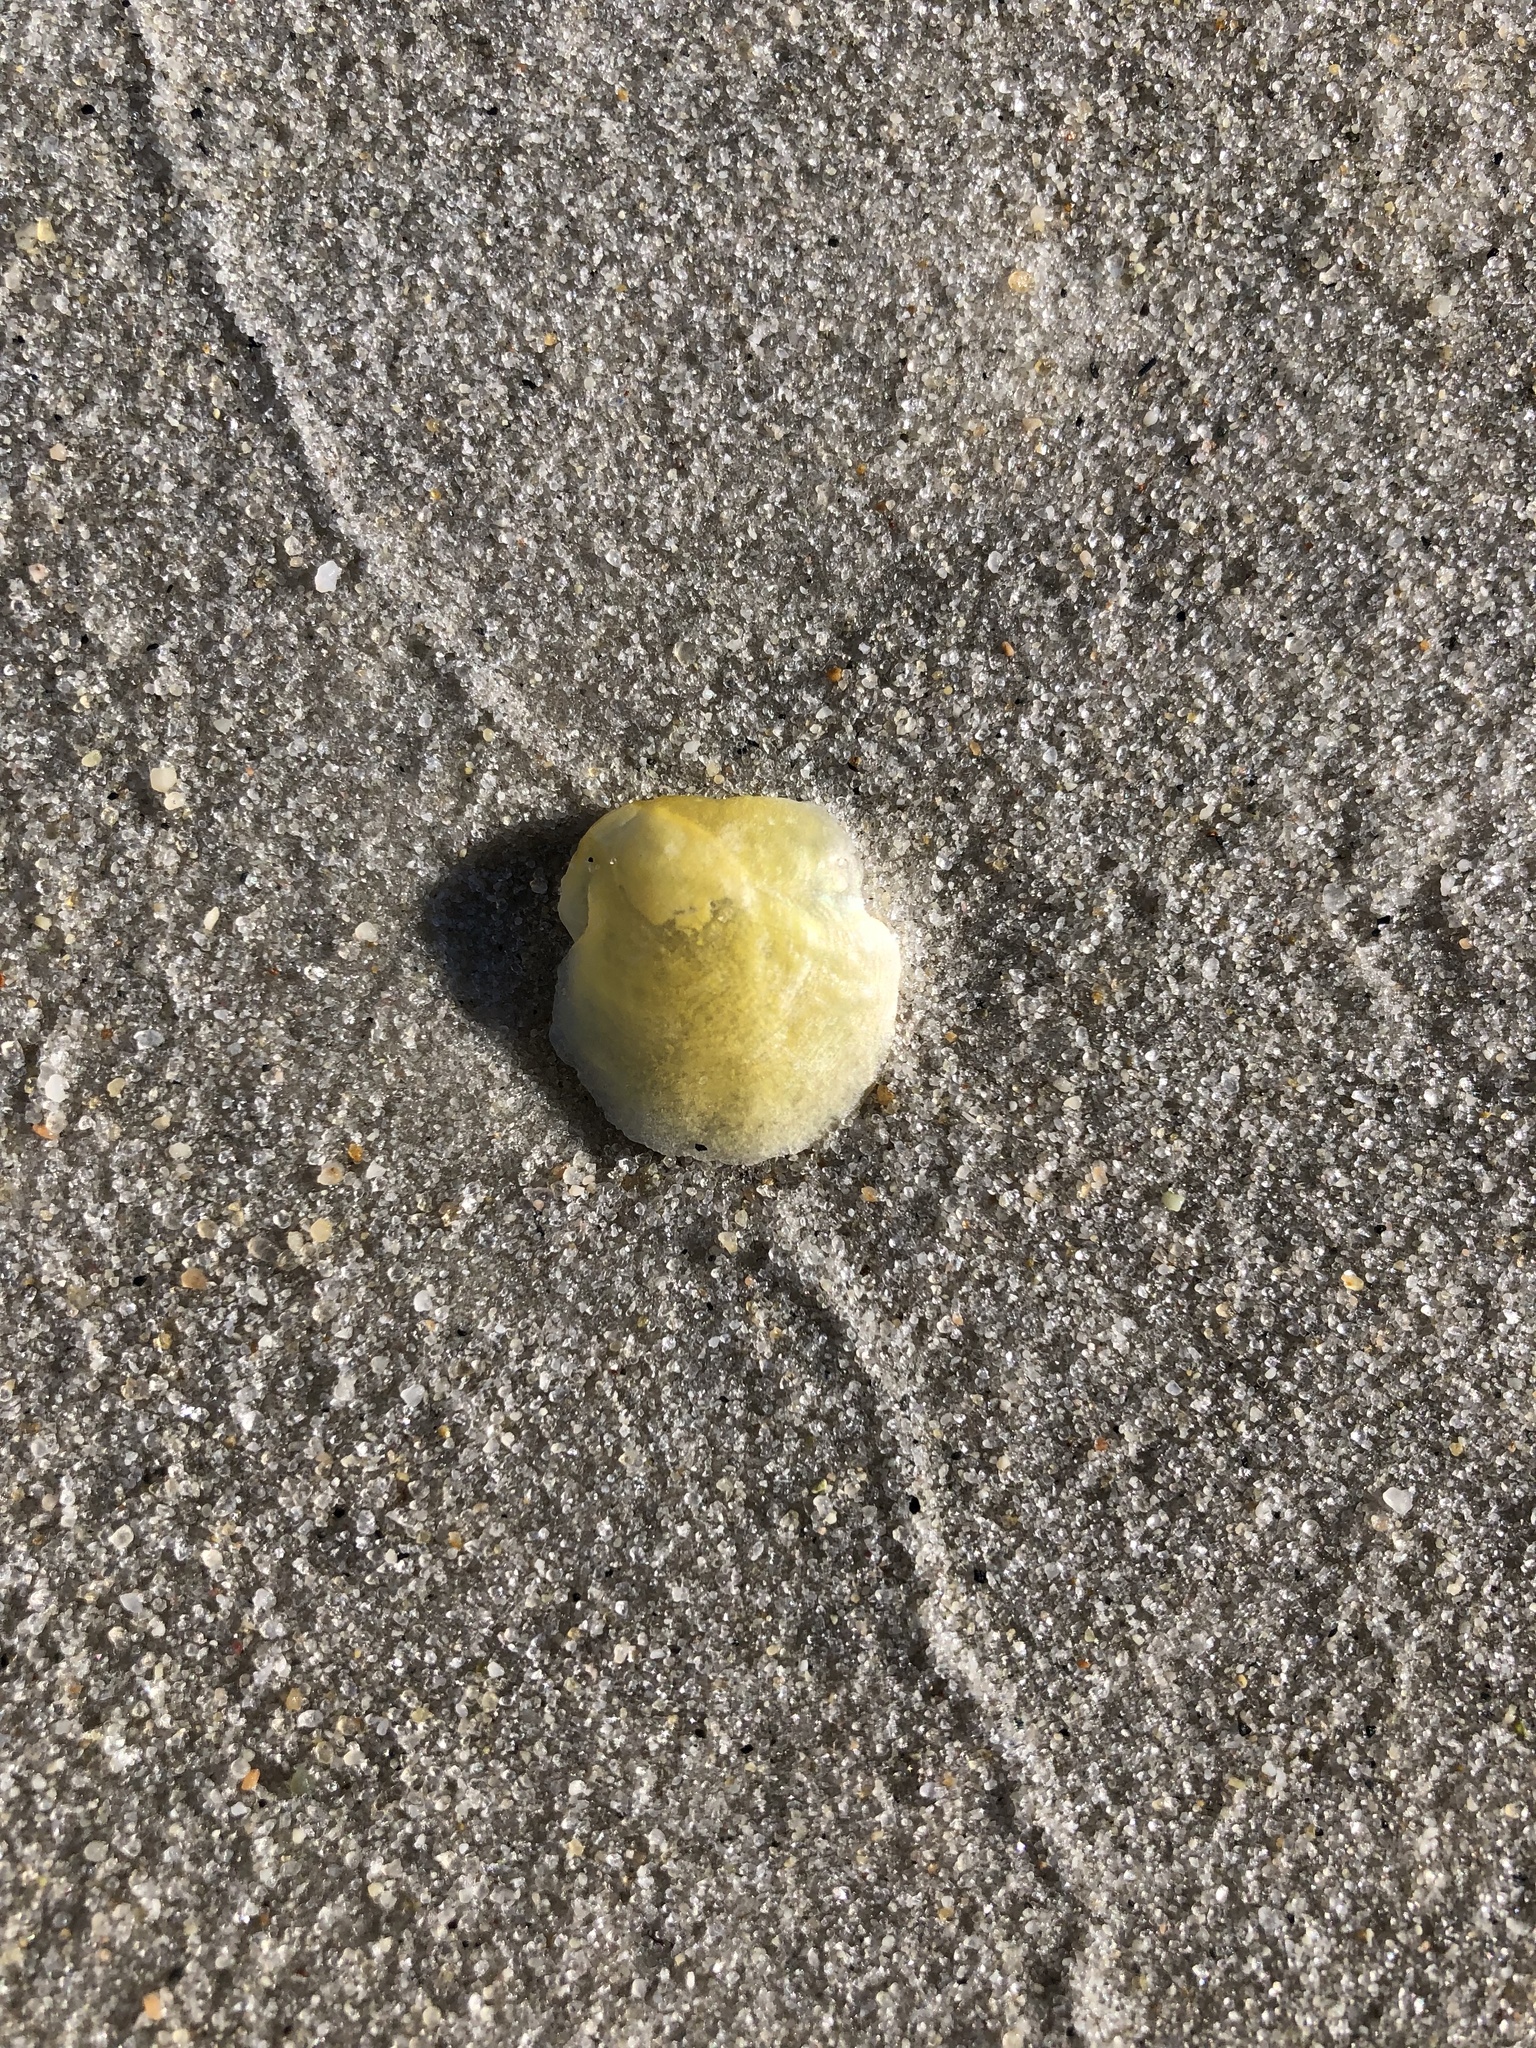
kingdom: Animalia
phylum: Mollusca
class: Bivalvia
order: Pectinida
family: Anomiidae
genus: Anomia
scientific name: Anomia simplex
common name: Common jingle shell
